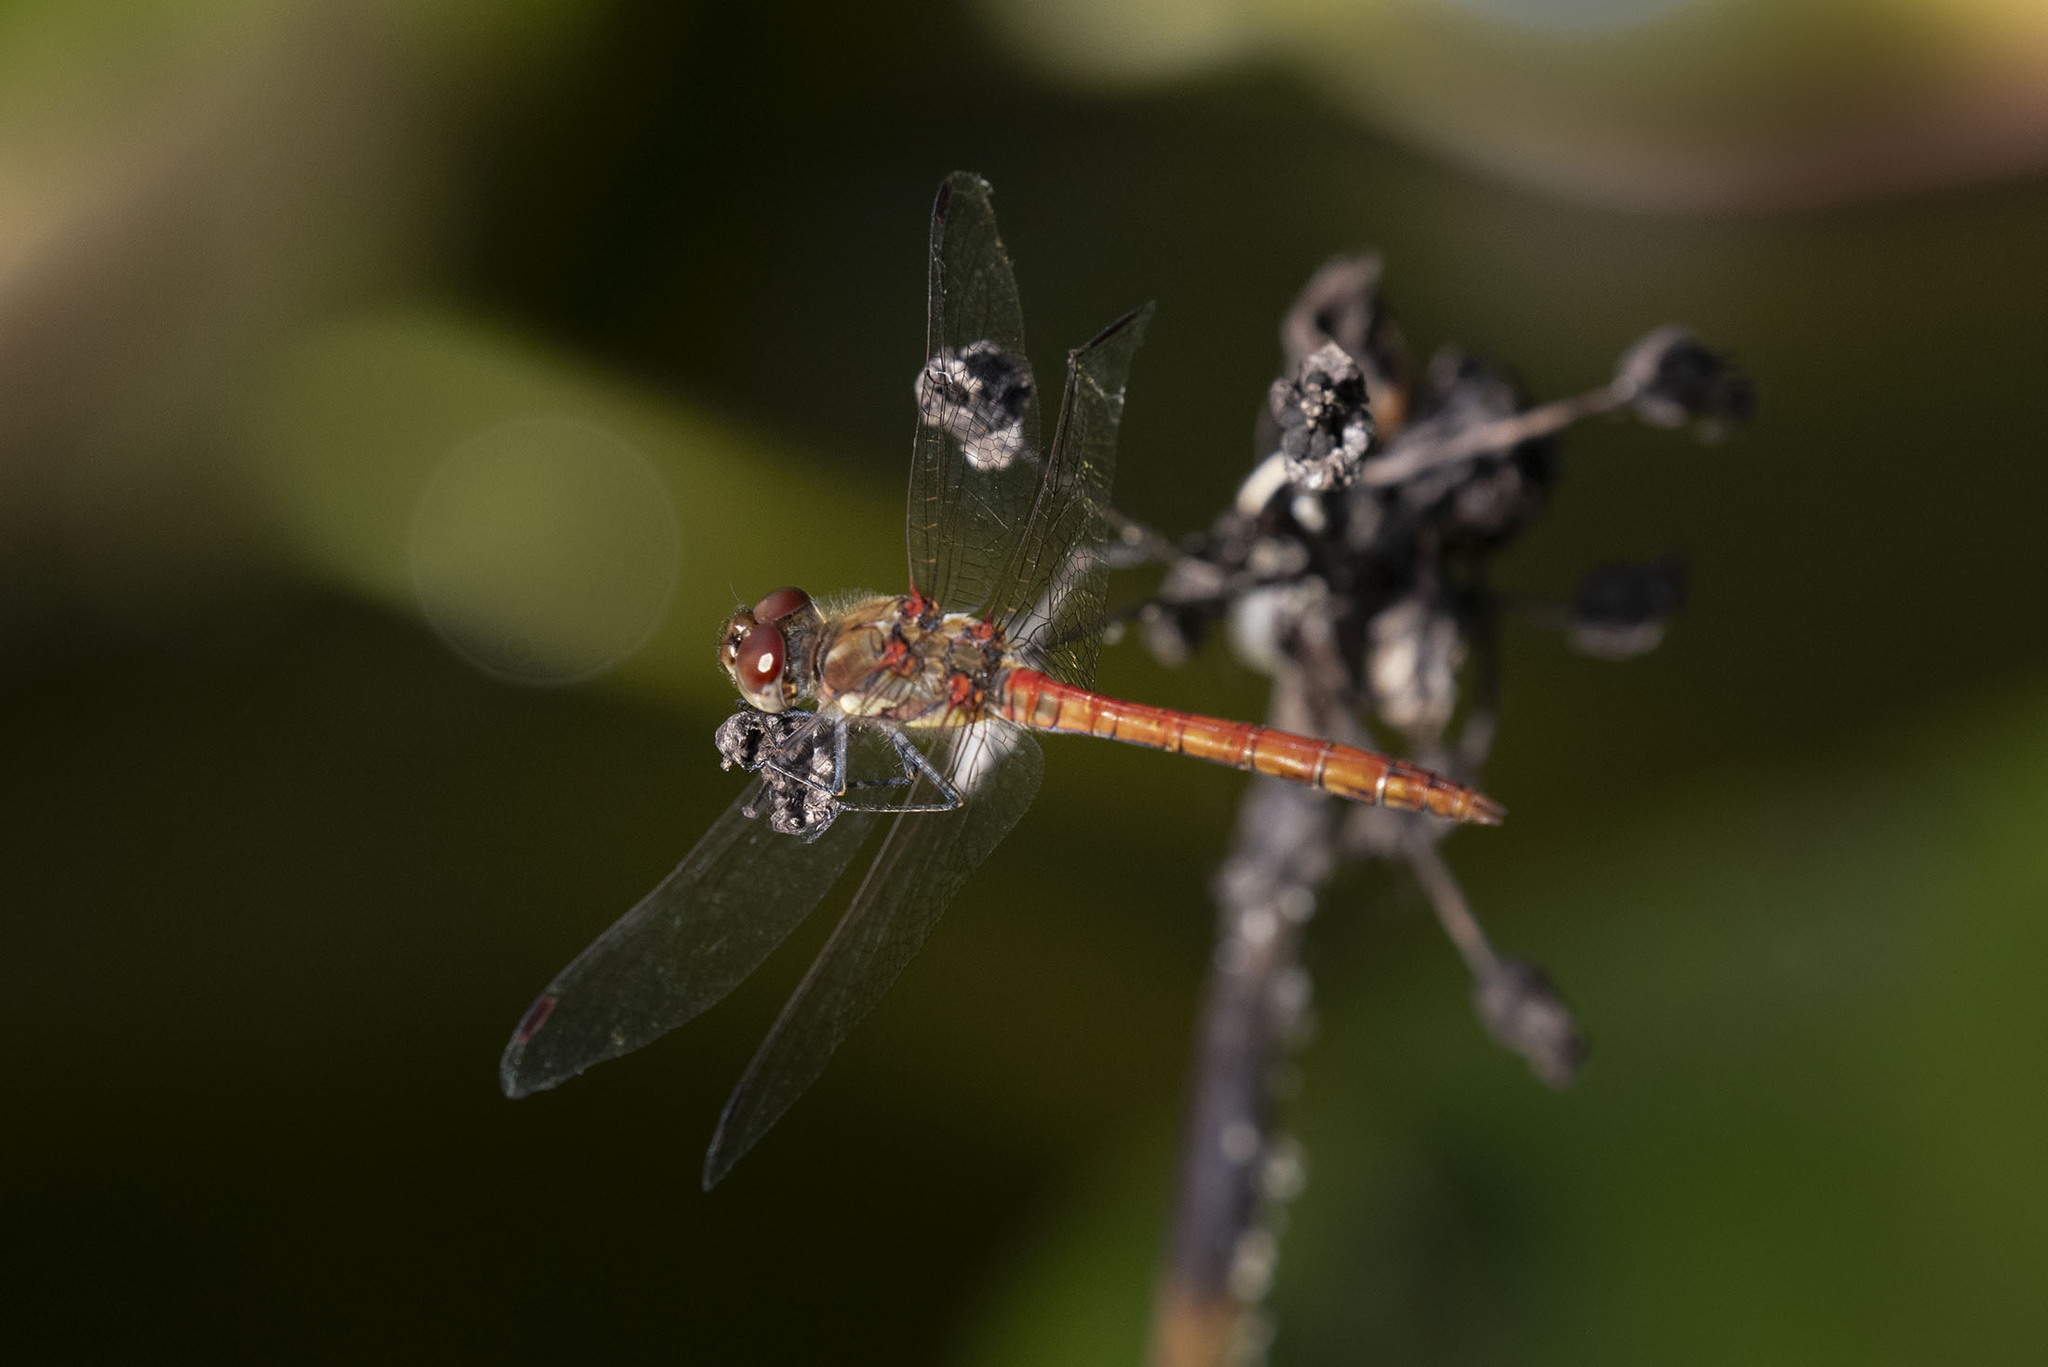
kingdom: Animalia
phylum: Arthropoda
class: Insecta
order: Odonata
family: Libellulidae
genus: Sympetrum
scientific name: Sympetrum striolatum
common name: Common darter
